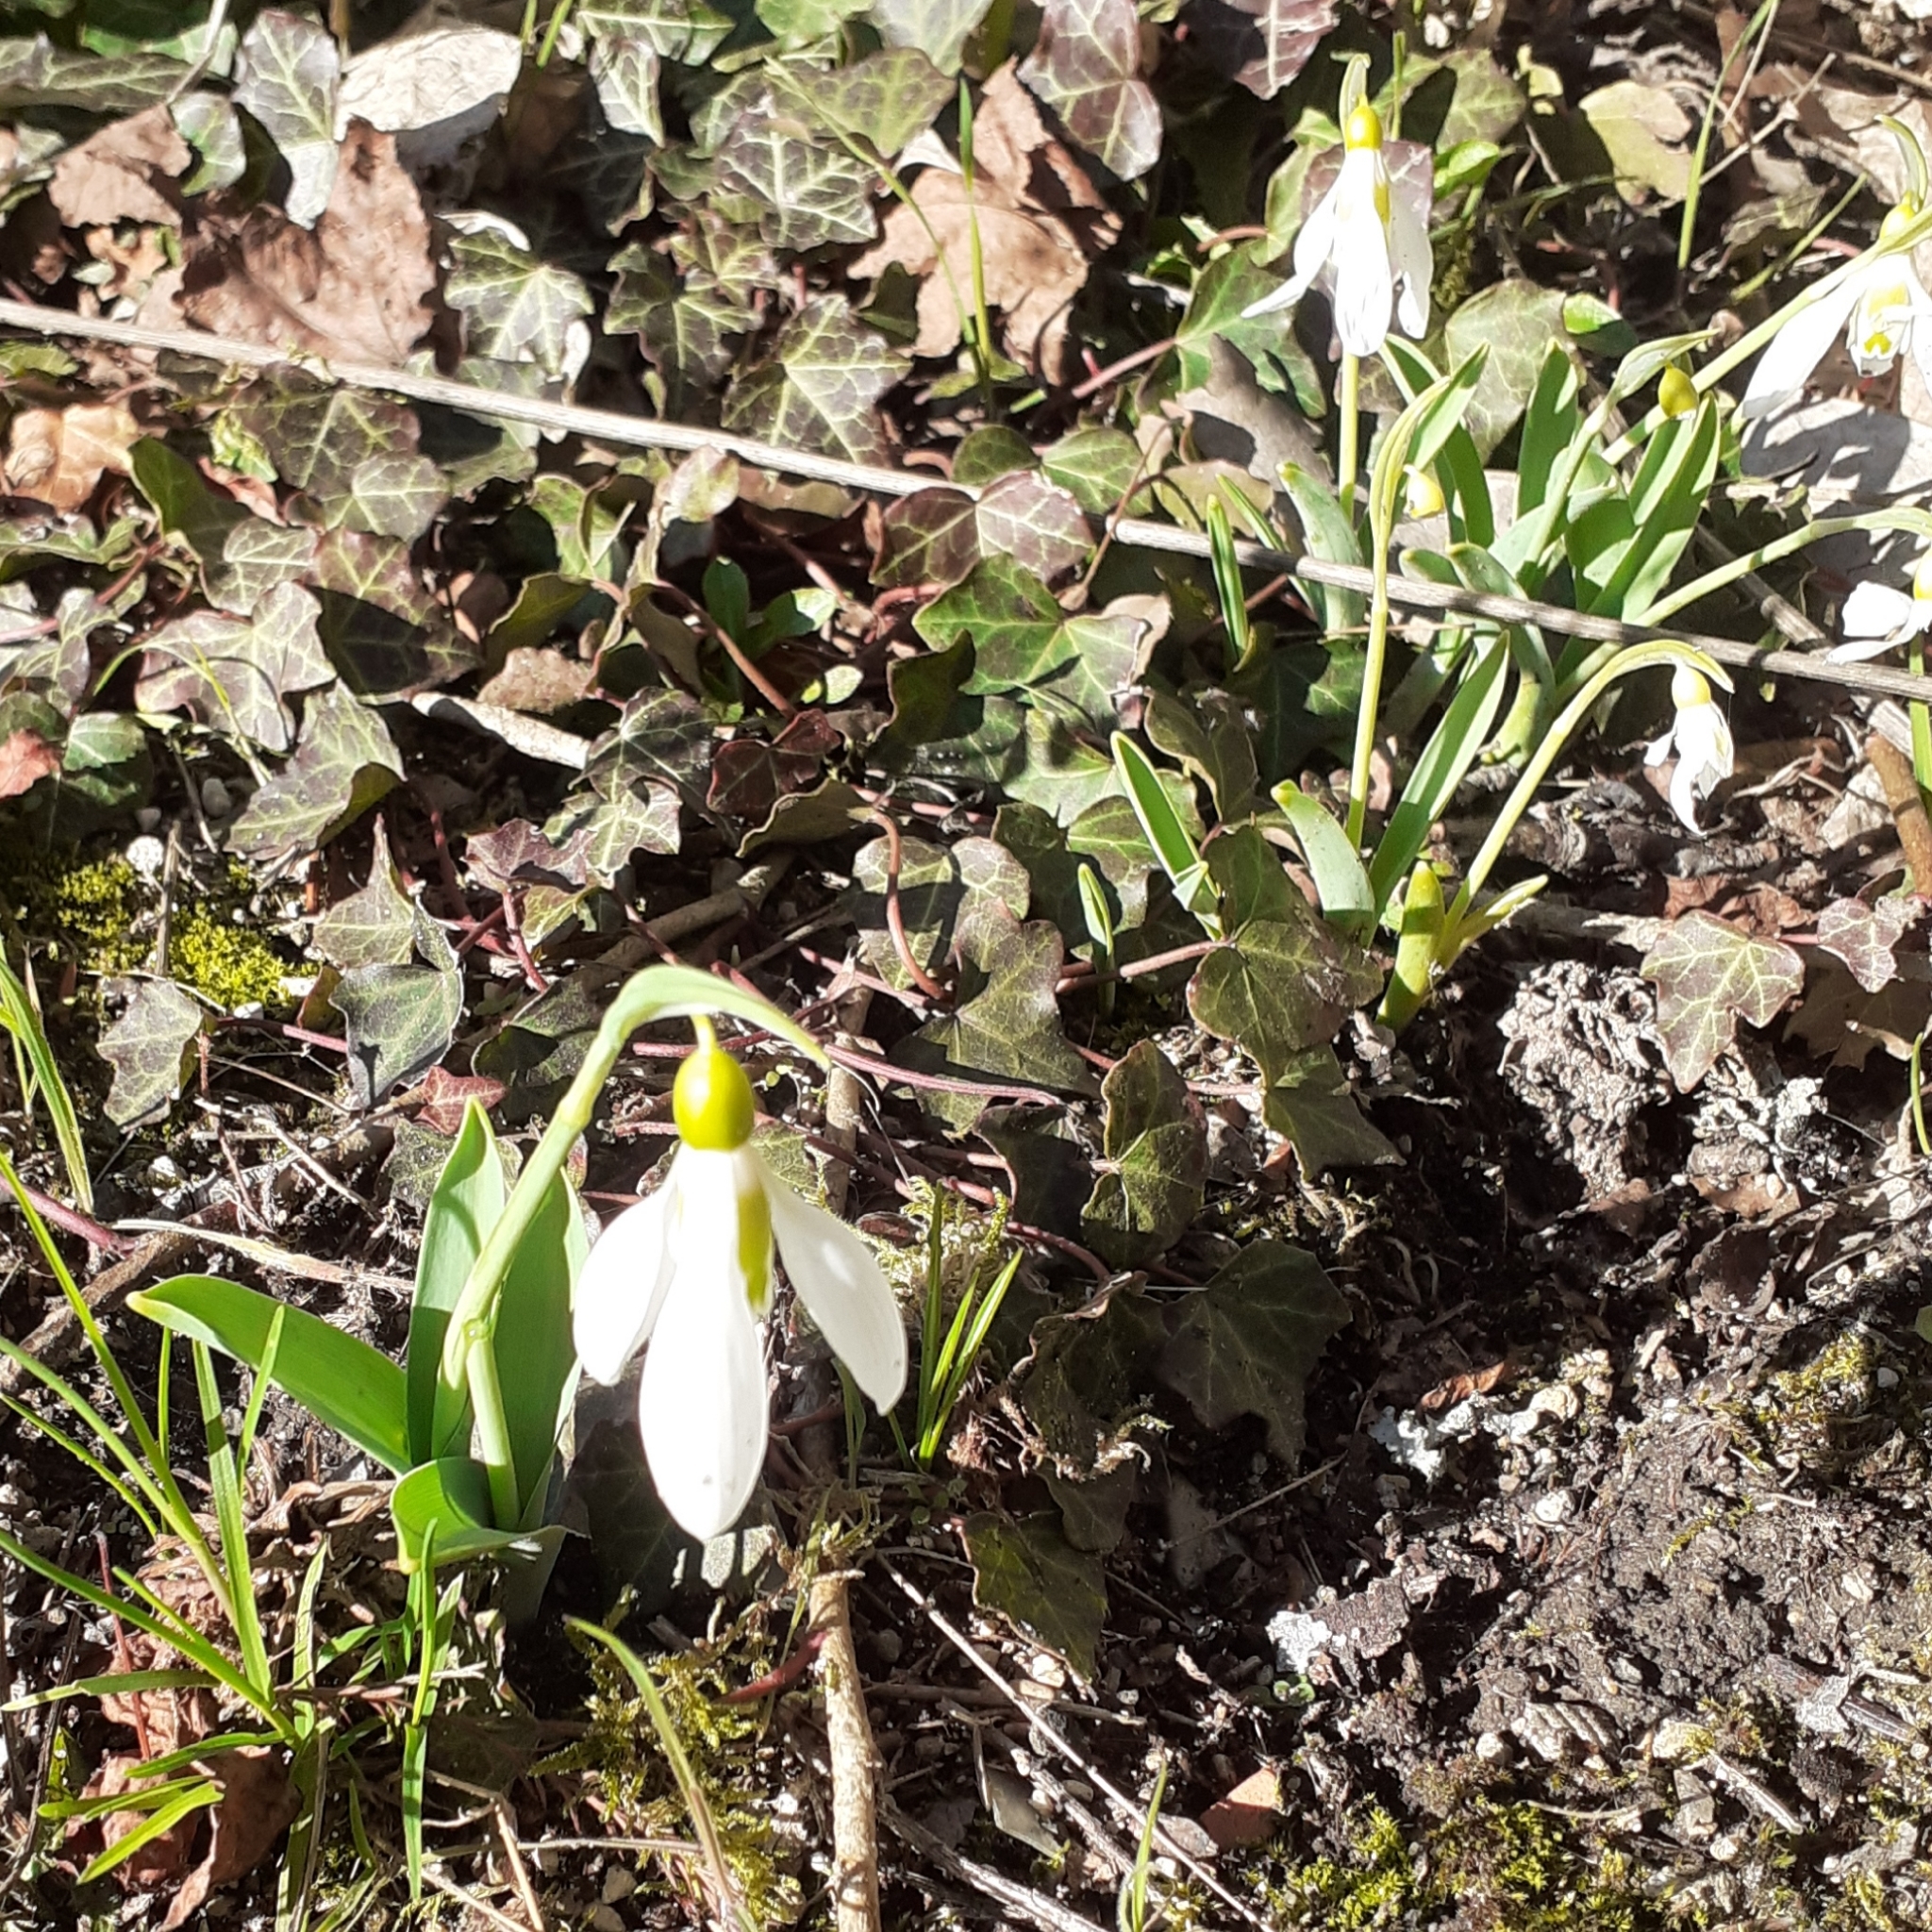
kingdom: Plantae
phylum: Tracheophyta
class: Liliopsida
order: Asparagales
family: Amaryllidaceae
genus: Galanthus
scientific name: Galanthus elwesii
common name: Greater snowdrop
